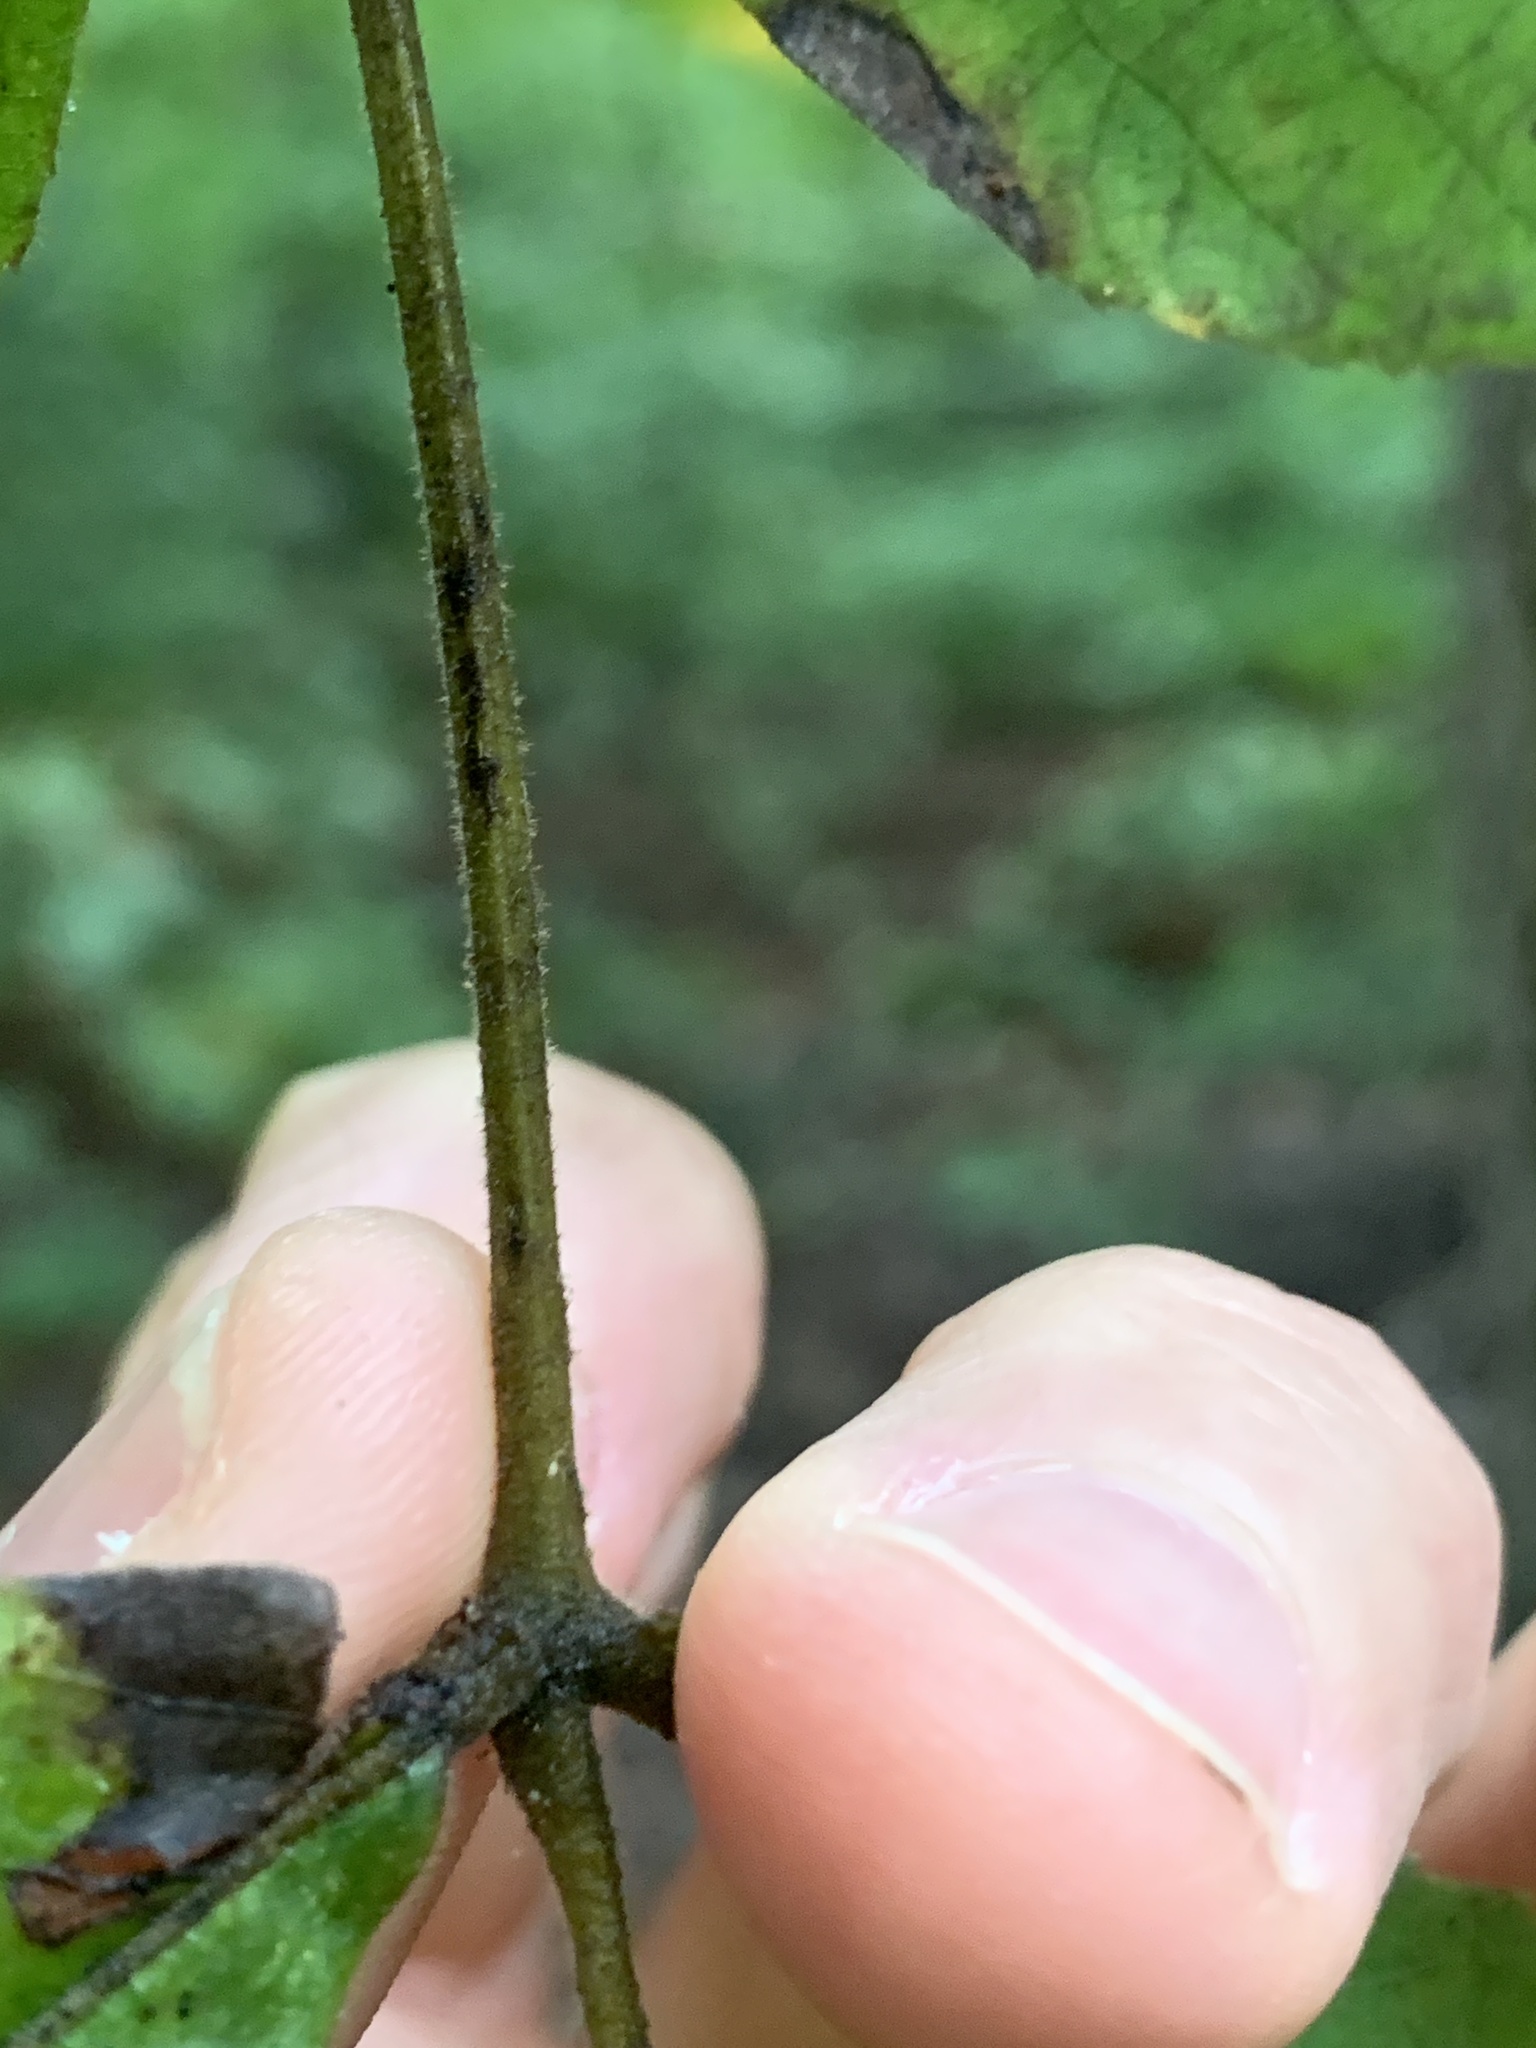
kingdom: Plantae
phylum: Tracheophyta
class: Magnoliopsida
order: Fagales
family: Juglandaceae
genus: Carya
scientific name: Carya alba
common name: Mockernut hickory
